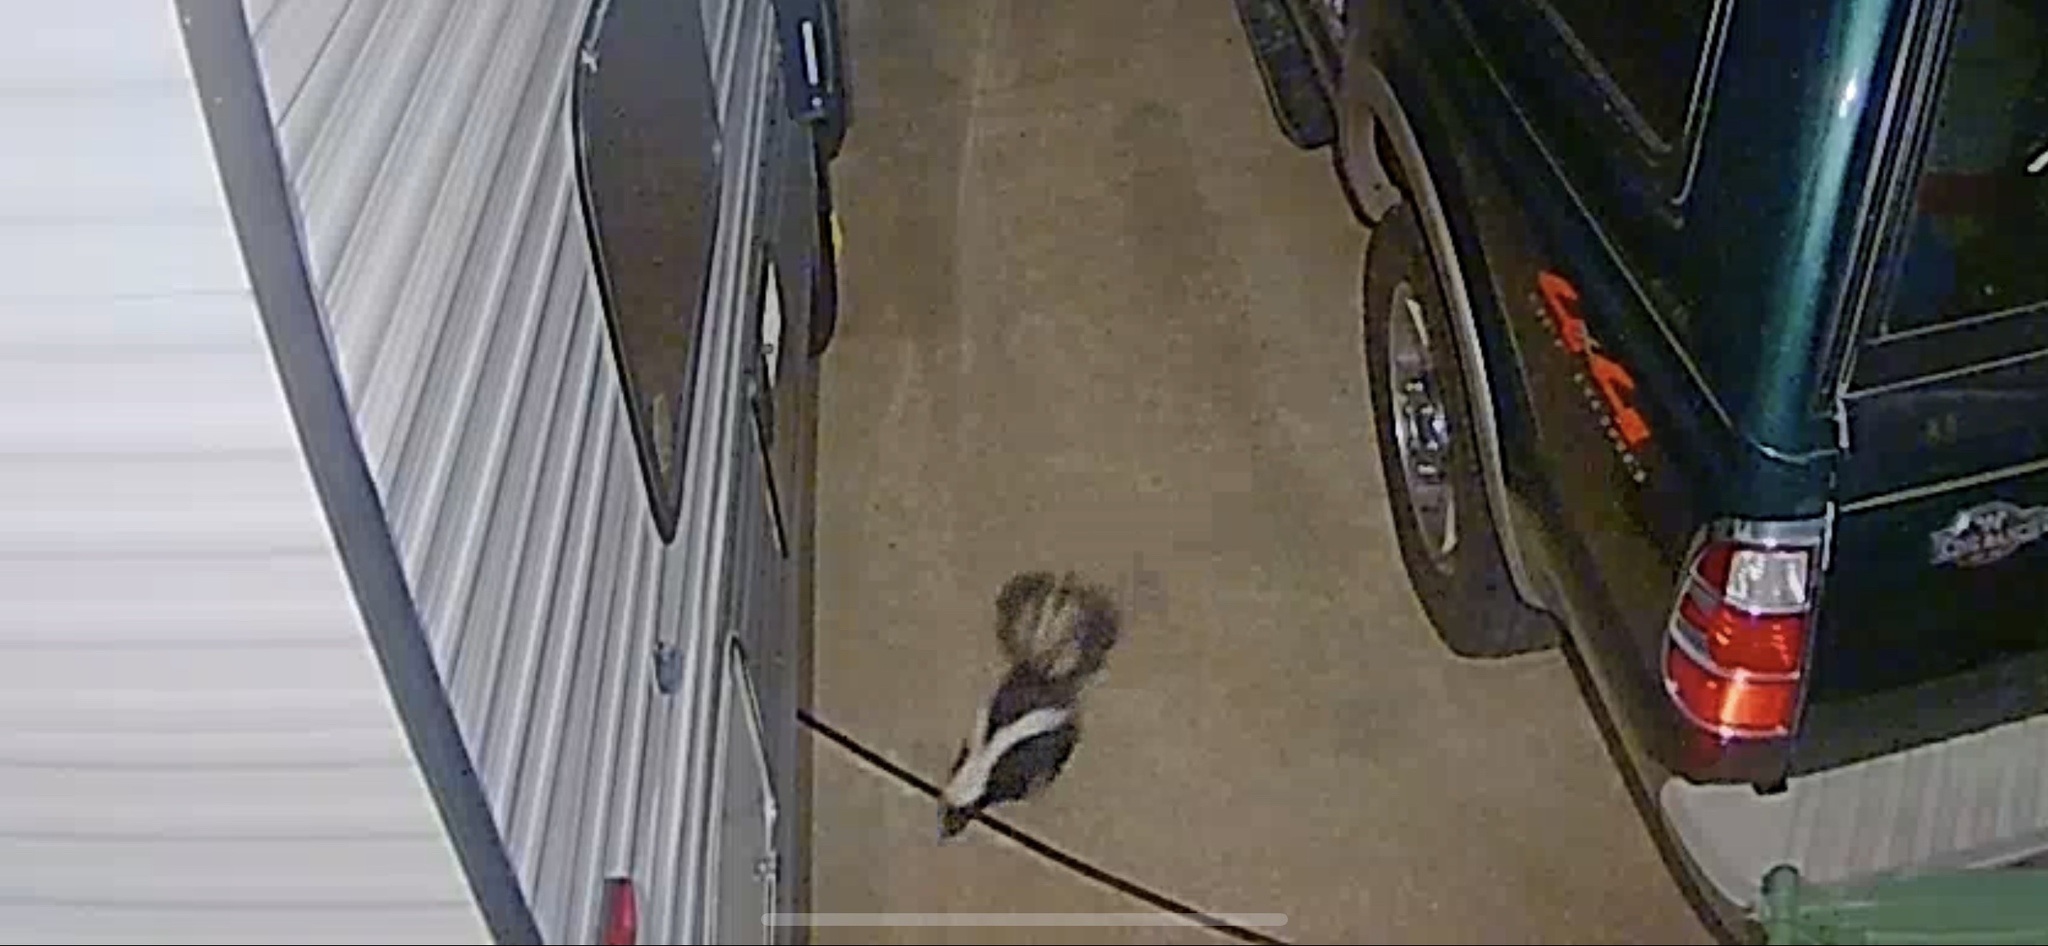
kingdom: Animalia
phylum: Chordata
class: Mammalia
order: Carnivora
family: Mephitidae
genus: Mephitis
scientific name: Mephitis mephitis
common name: Striped skunk
